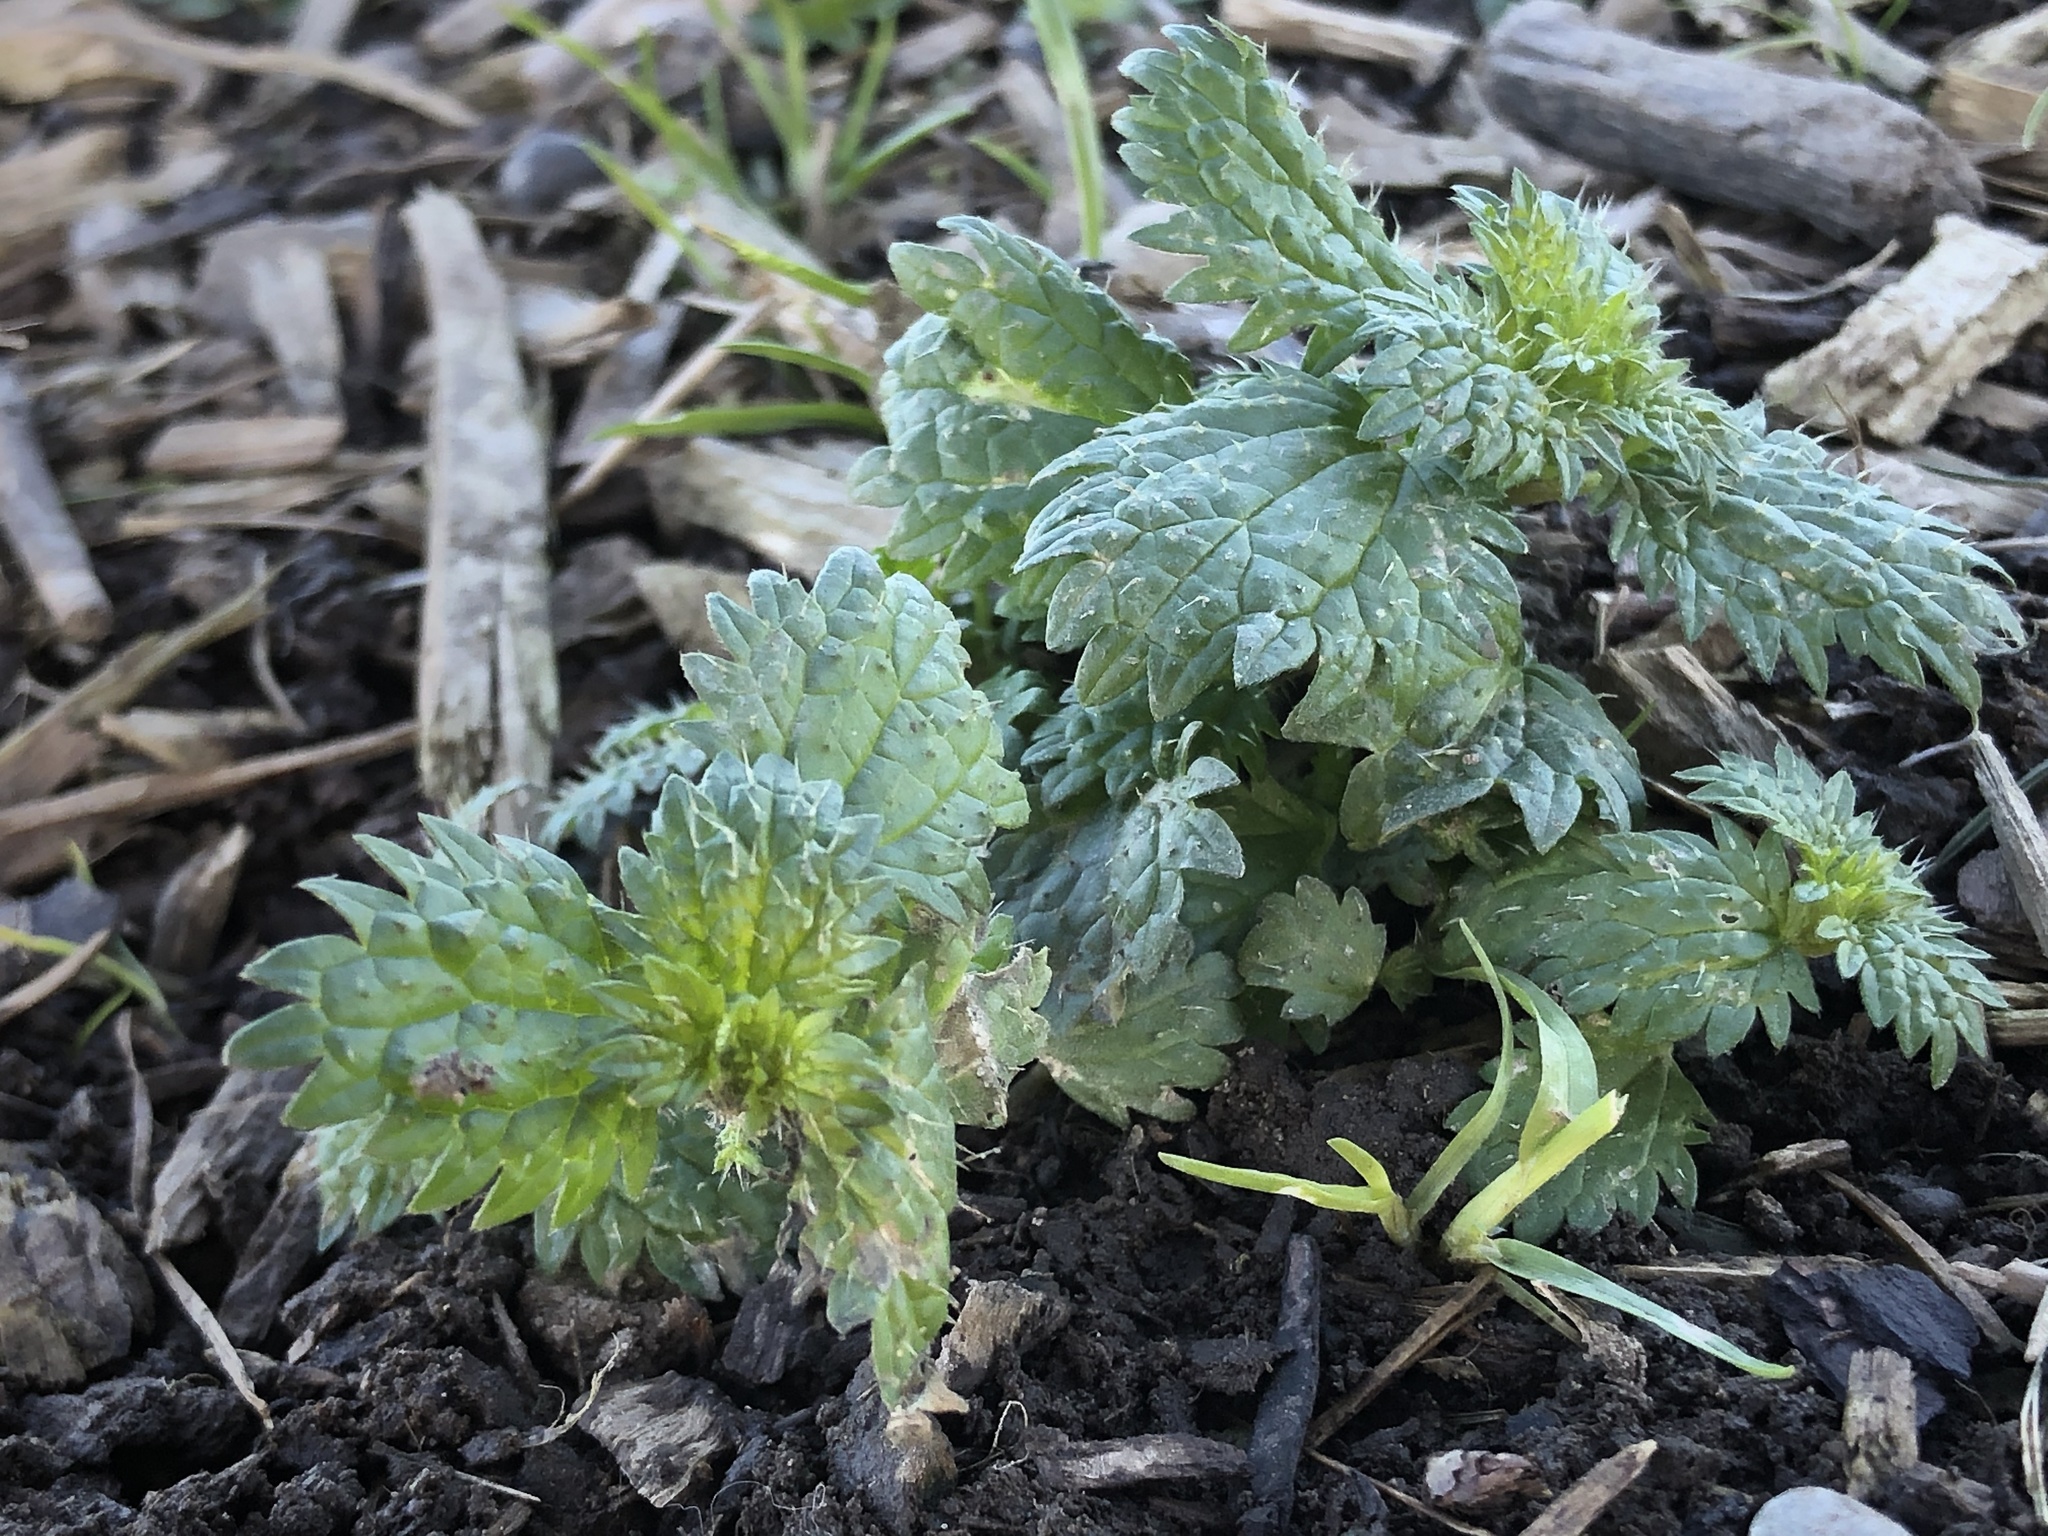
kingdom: Plantae
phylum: Tracheophyta
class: Magnoliopsida
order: Rosales
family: Urticaceae
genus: Urtica
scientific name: Urtica urens
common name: Dwarf nettle
